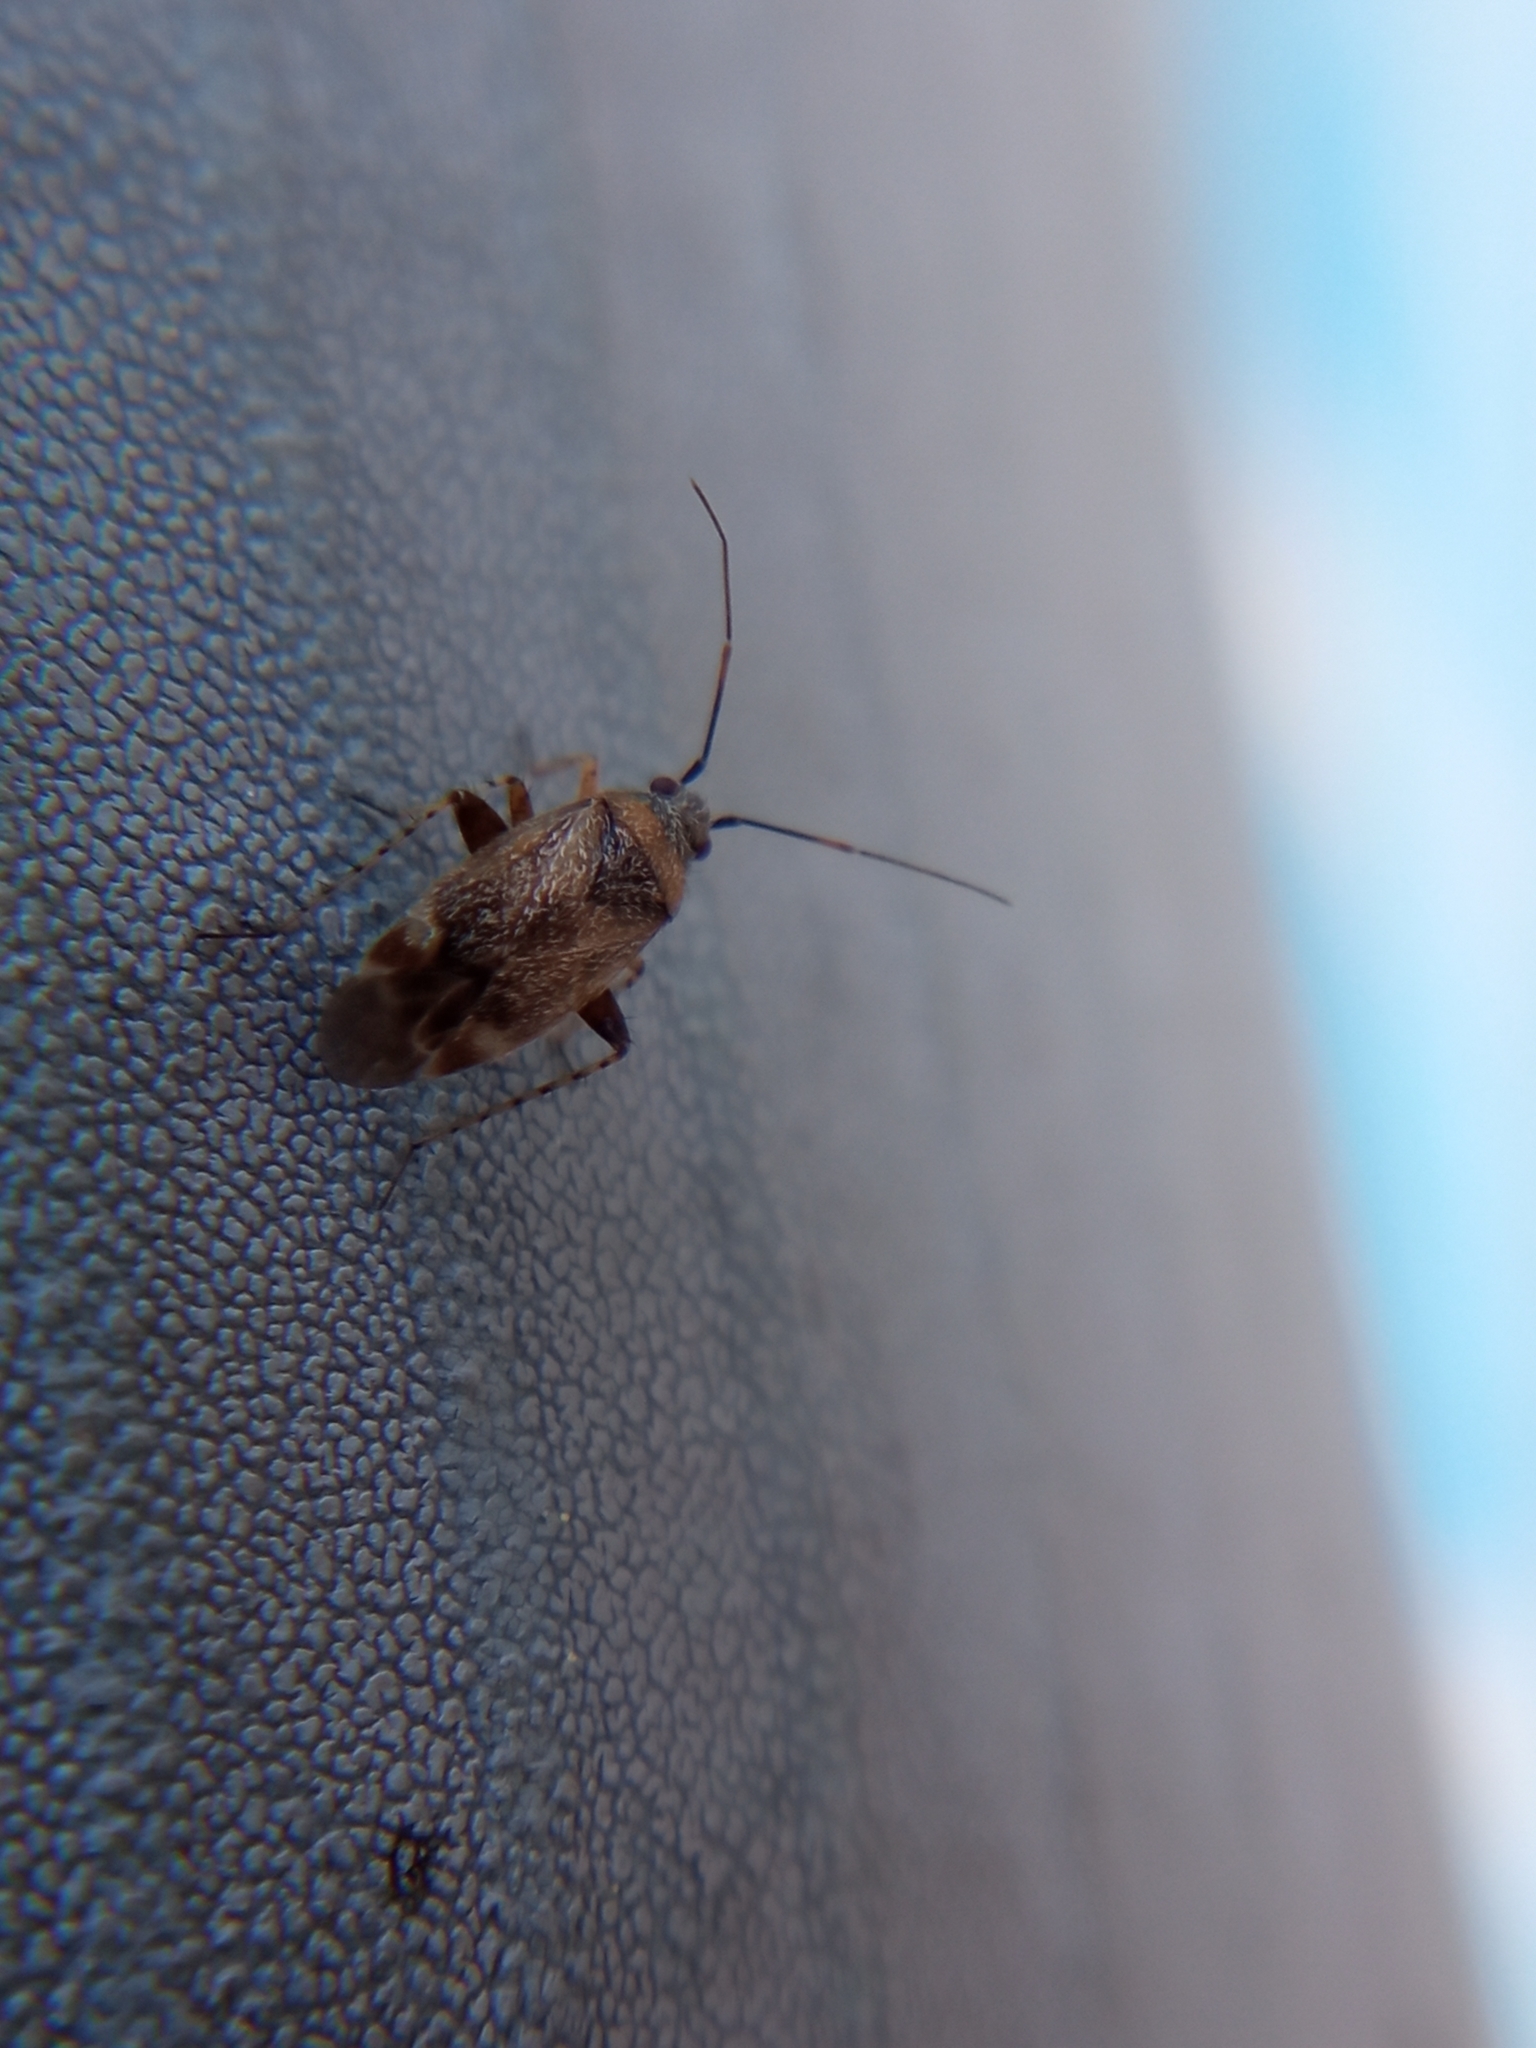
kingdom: Animalia
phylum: Arthropoda
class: Insecta
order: Hemiptera
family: Miridae
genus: Europiella
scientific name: Europiella artemisiae
